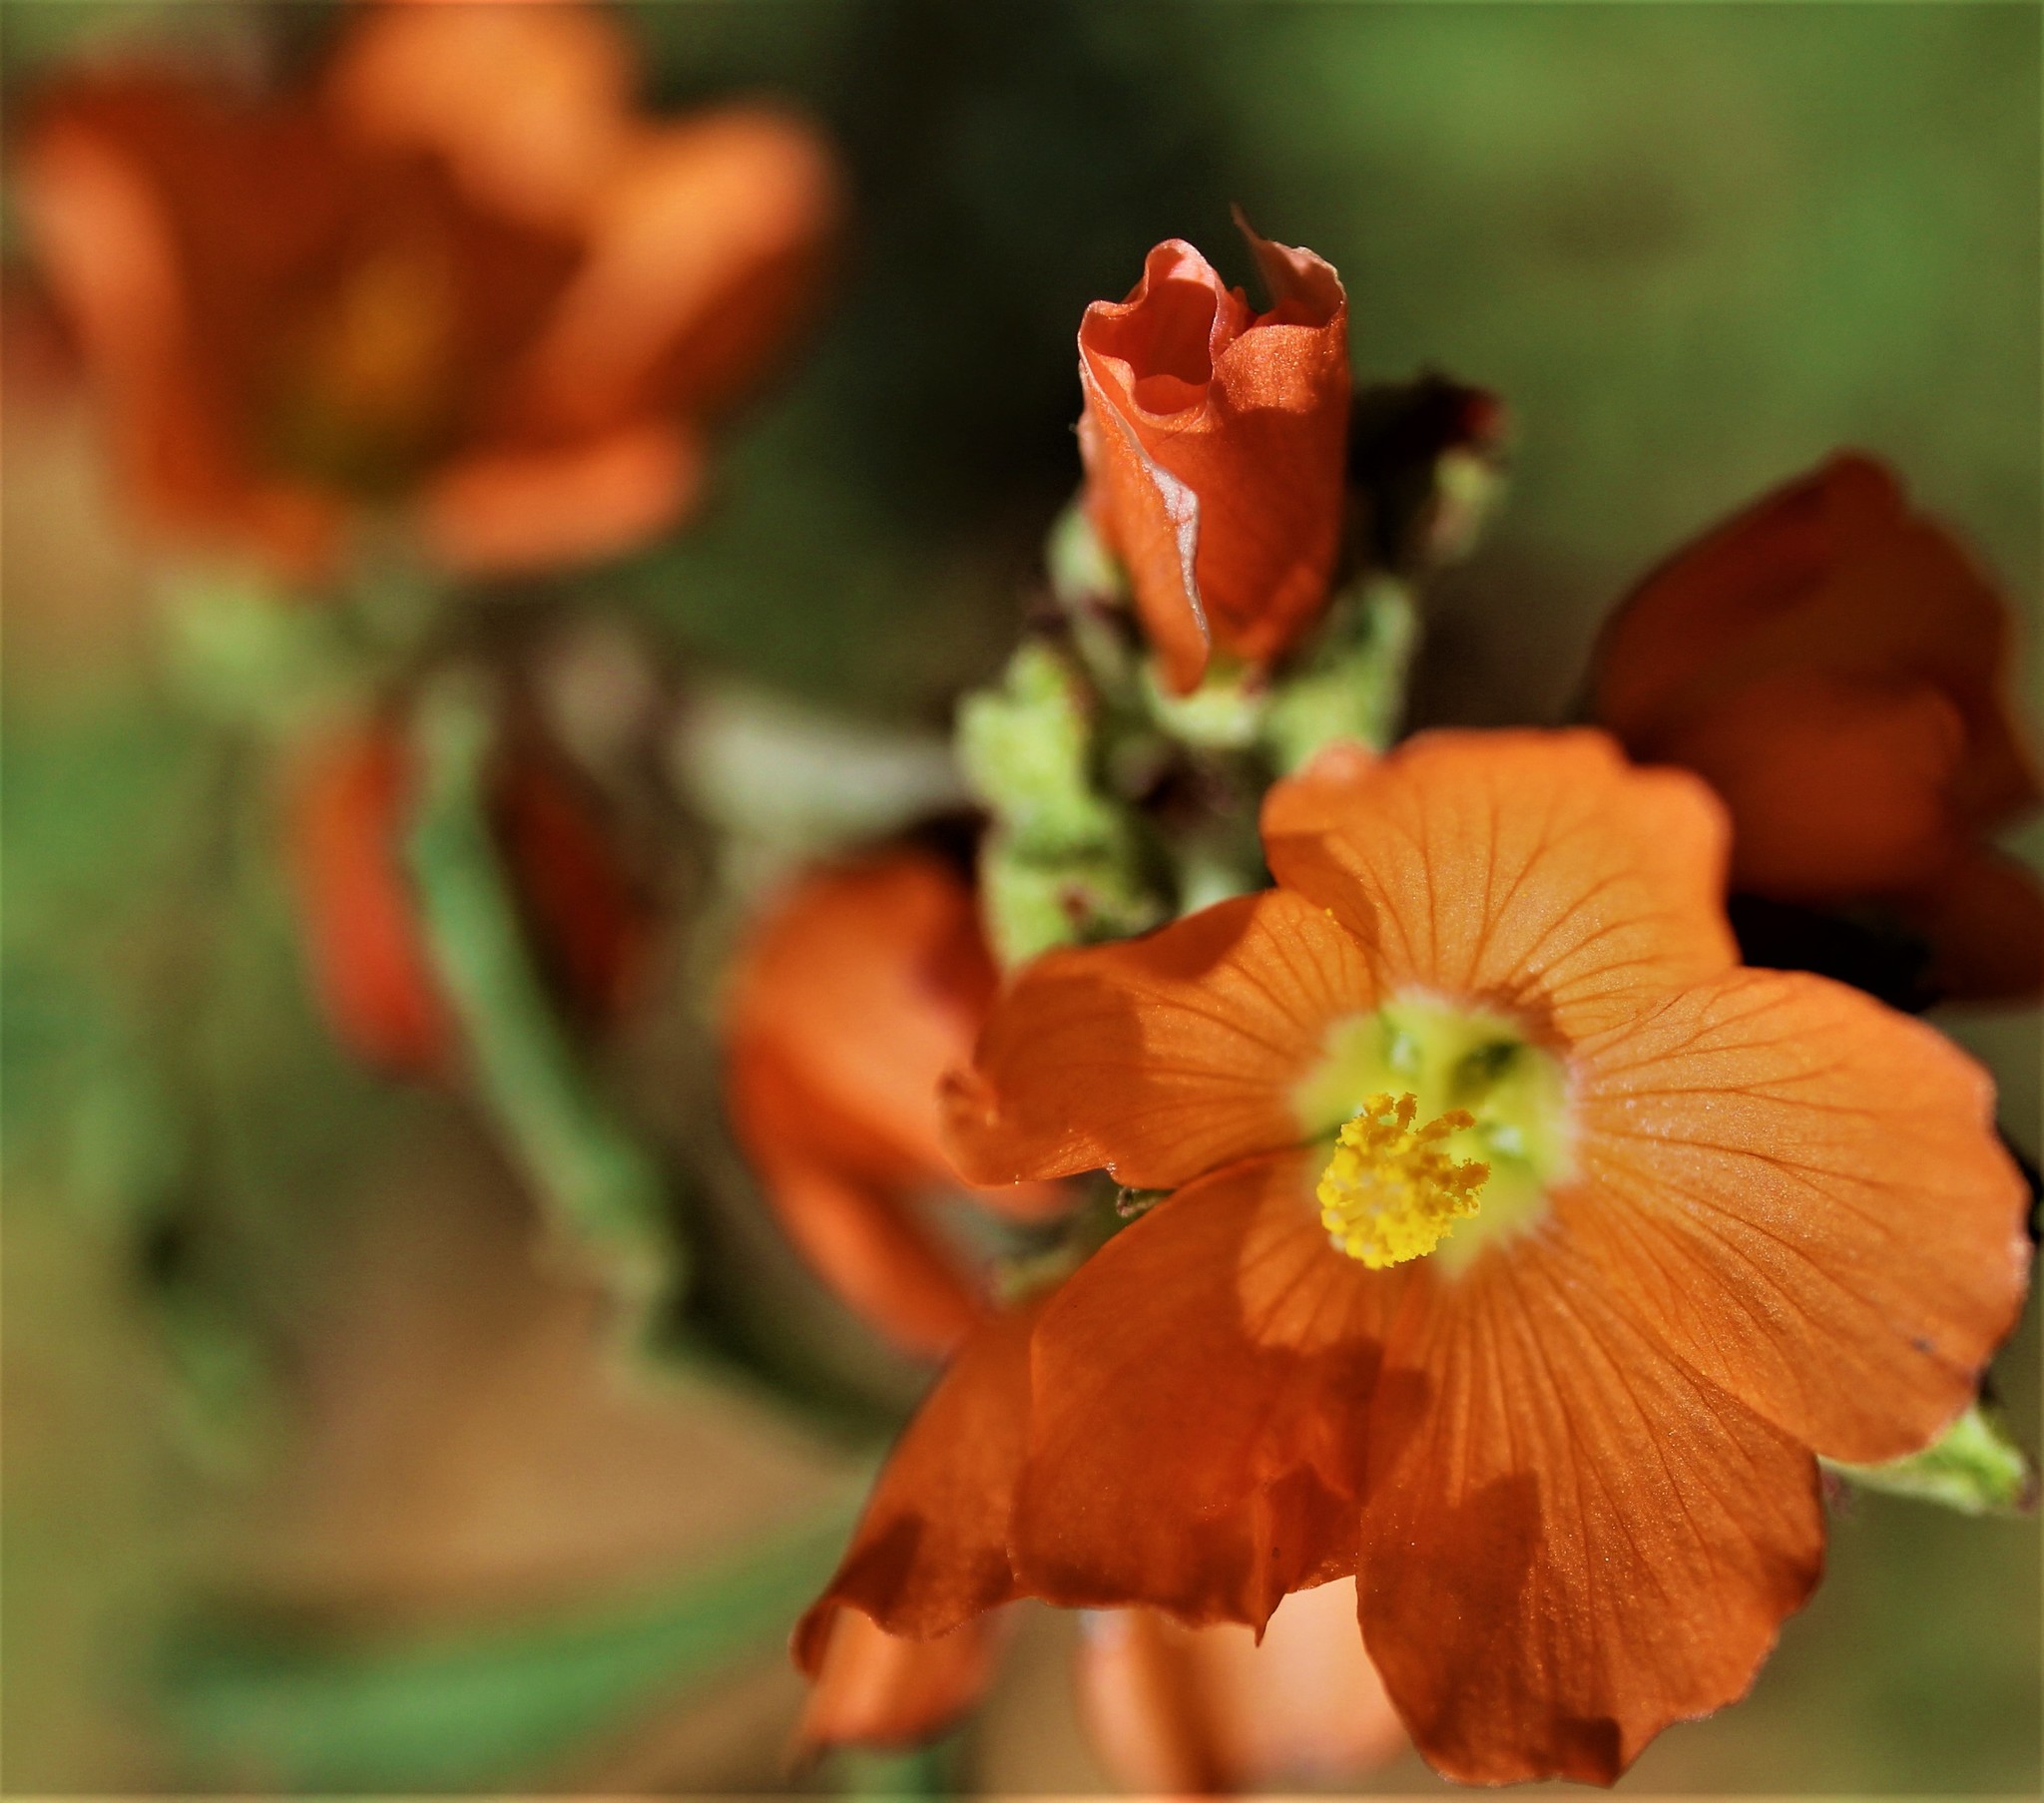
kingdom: Plantae
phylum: Tracheophyta
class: Magnoliopsida
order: Malvales
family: Malvaceae
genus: Sphaeralcea
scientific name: Sphaeralcea
